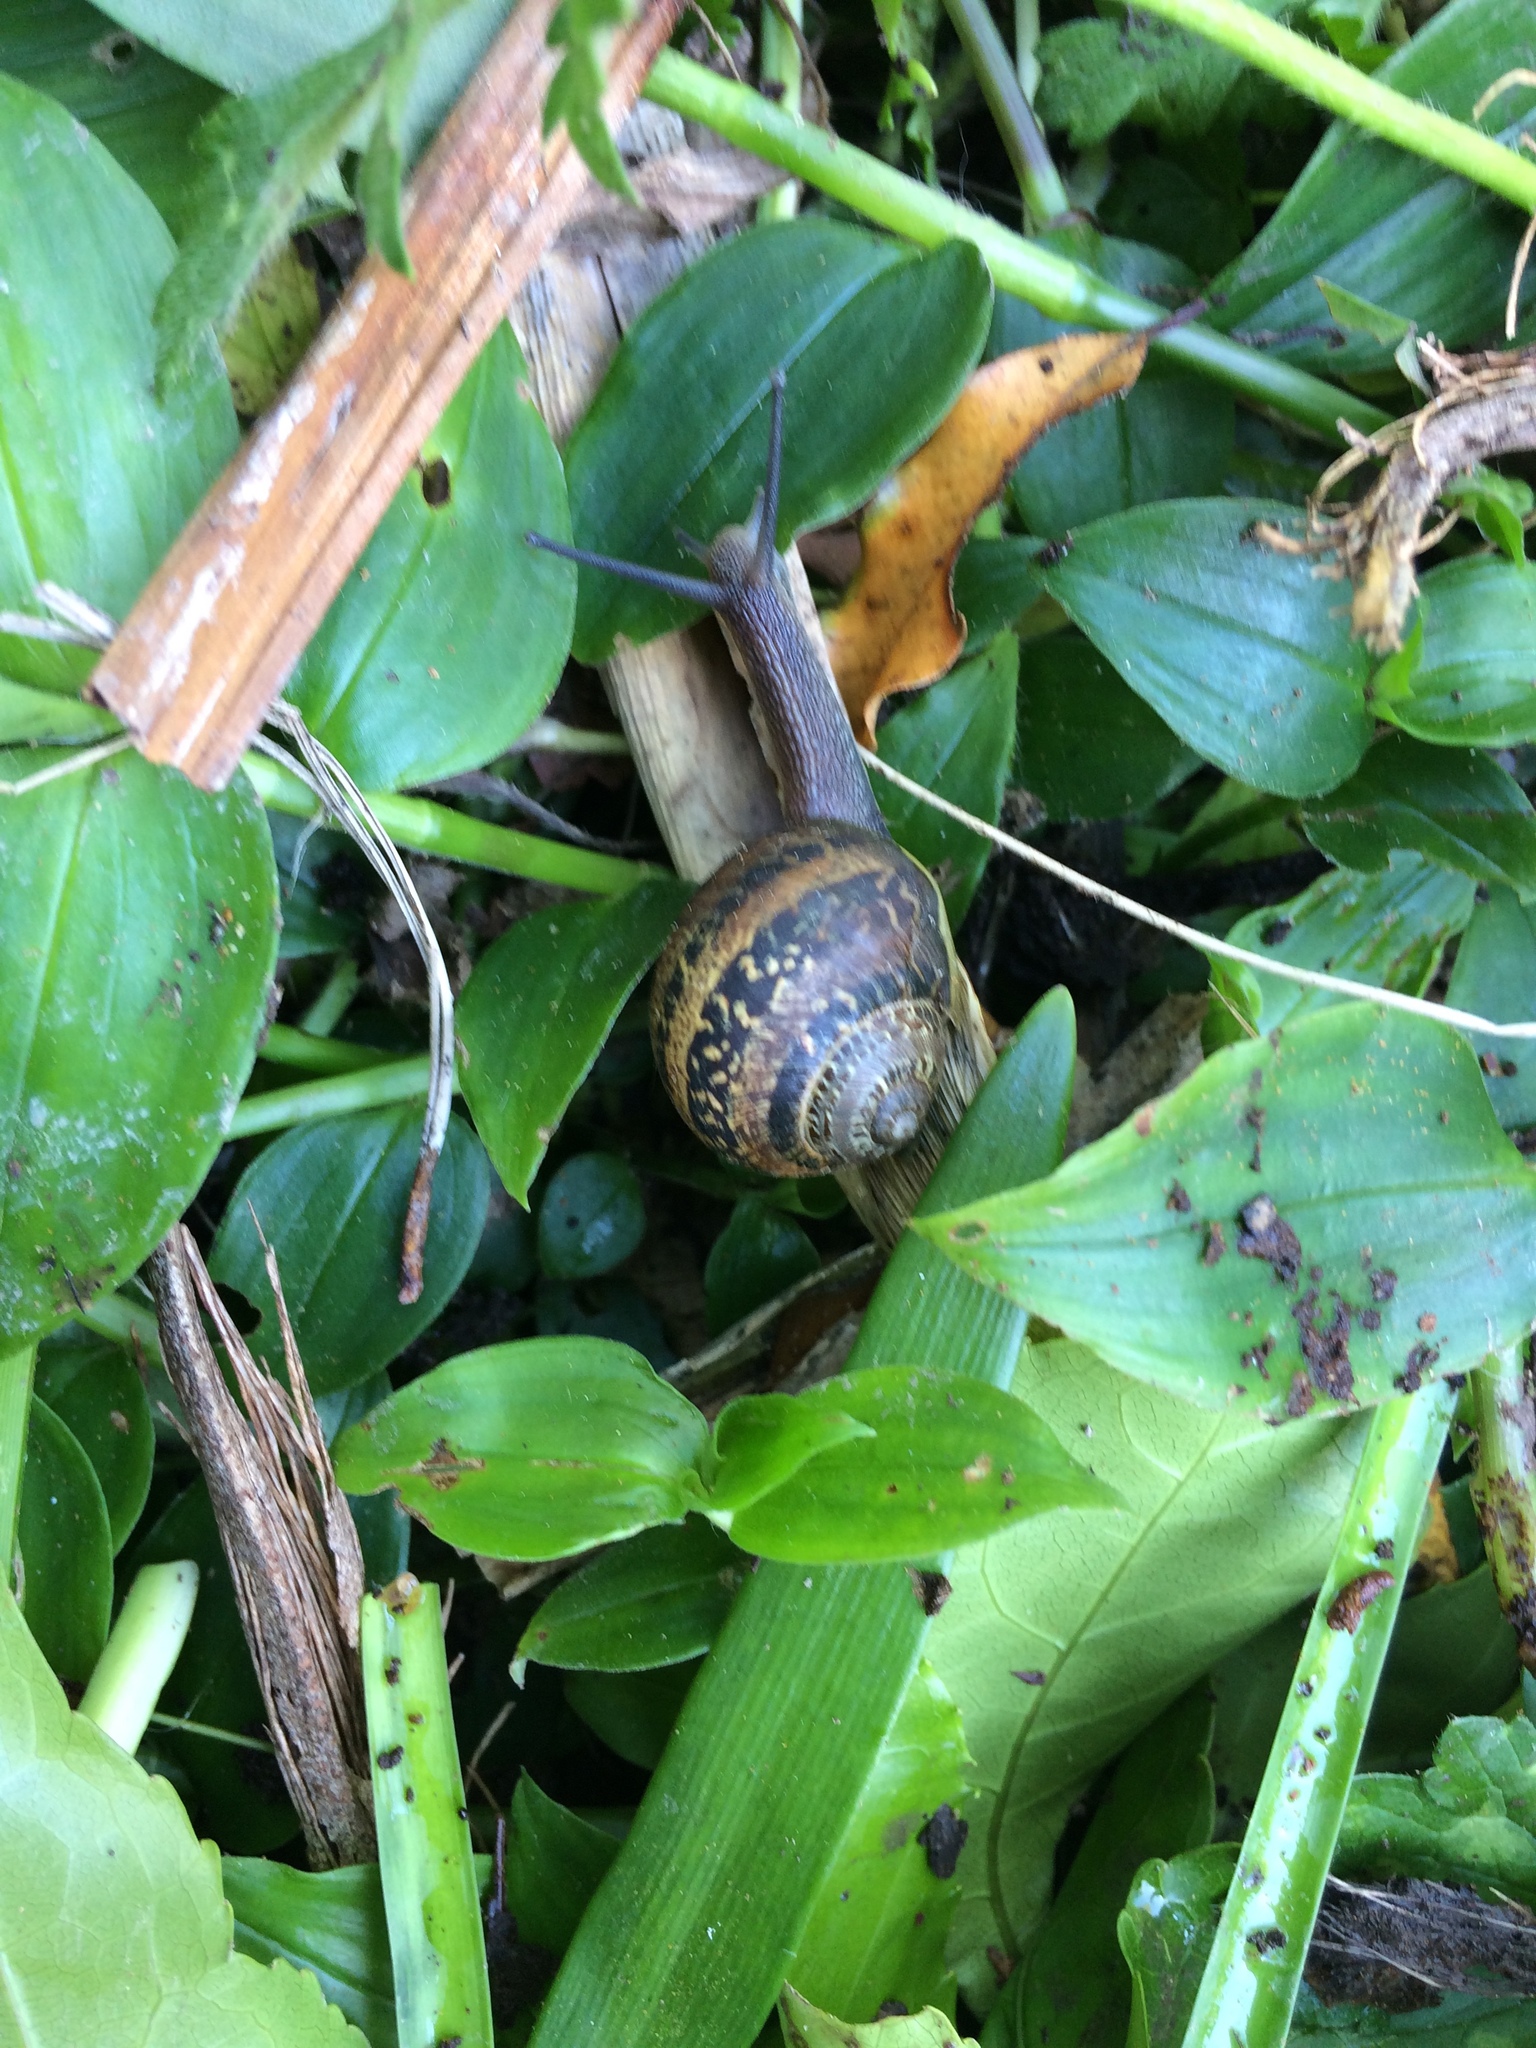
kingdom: Animalia
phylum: Mollusca
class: Gastropoda
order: Stylommatophora
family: Helicidae
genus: Cornu
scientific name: Cornu aspersum
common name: Brown garden snail
